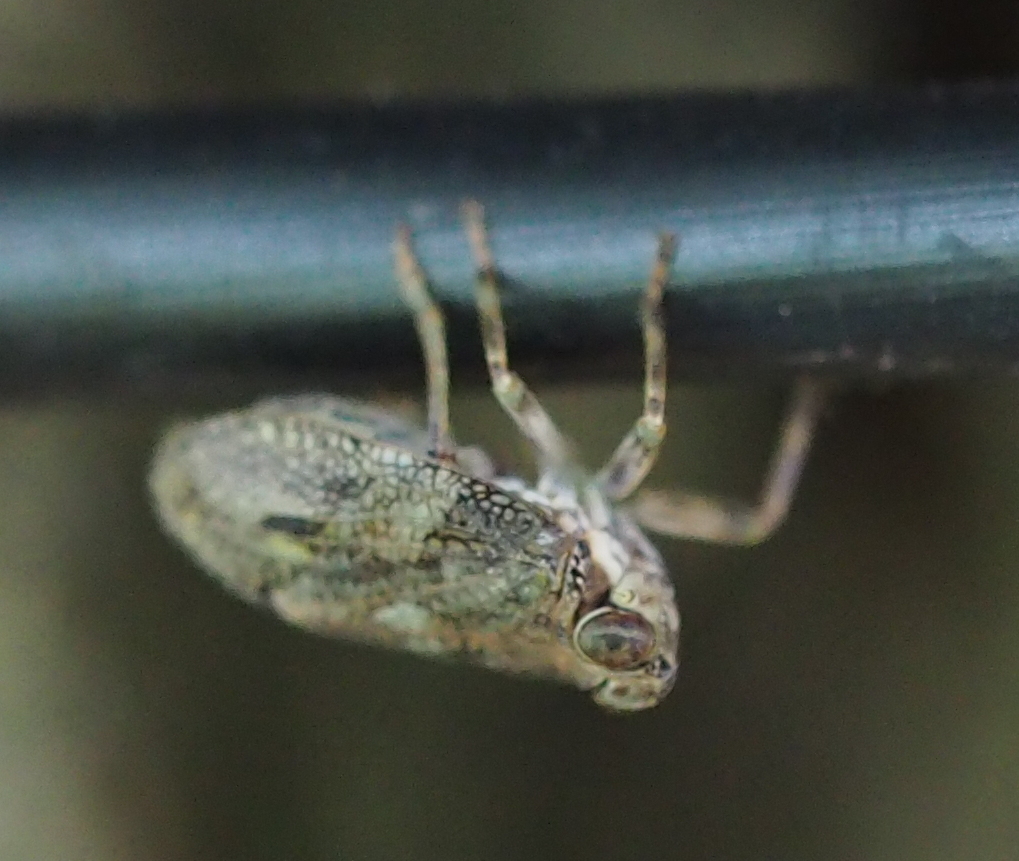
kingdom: Animalia
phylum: Arthropoda
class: Insecta
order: Hemiptera
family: Issidae
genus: Issus
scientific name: Issus coleoptratus
